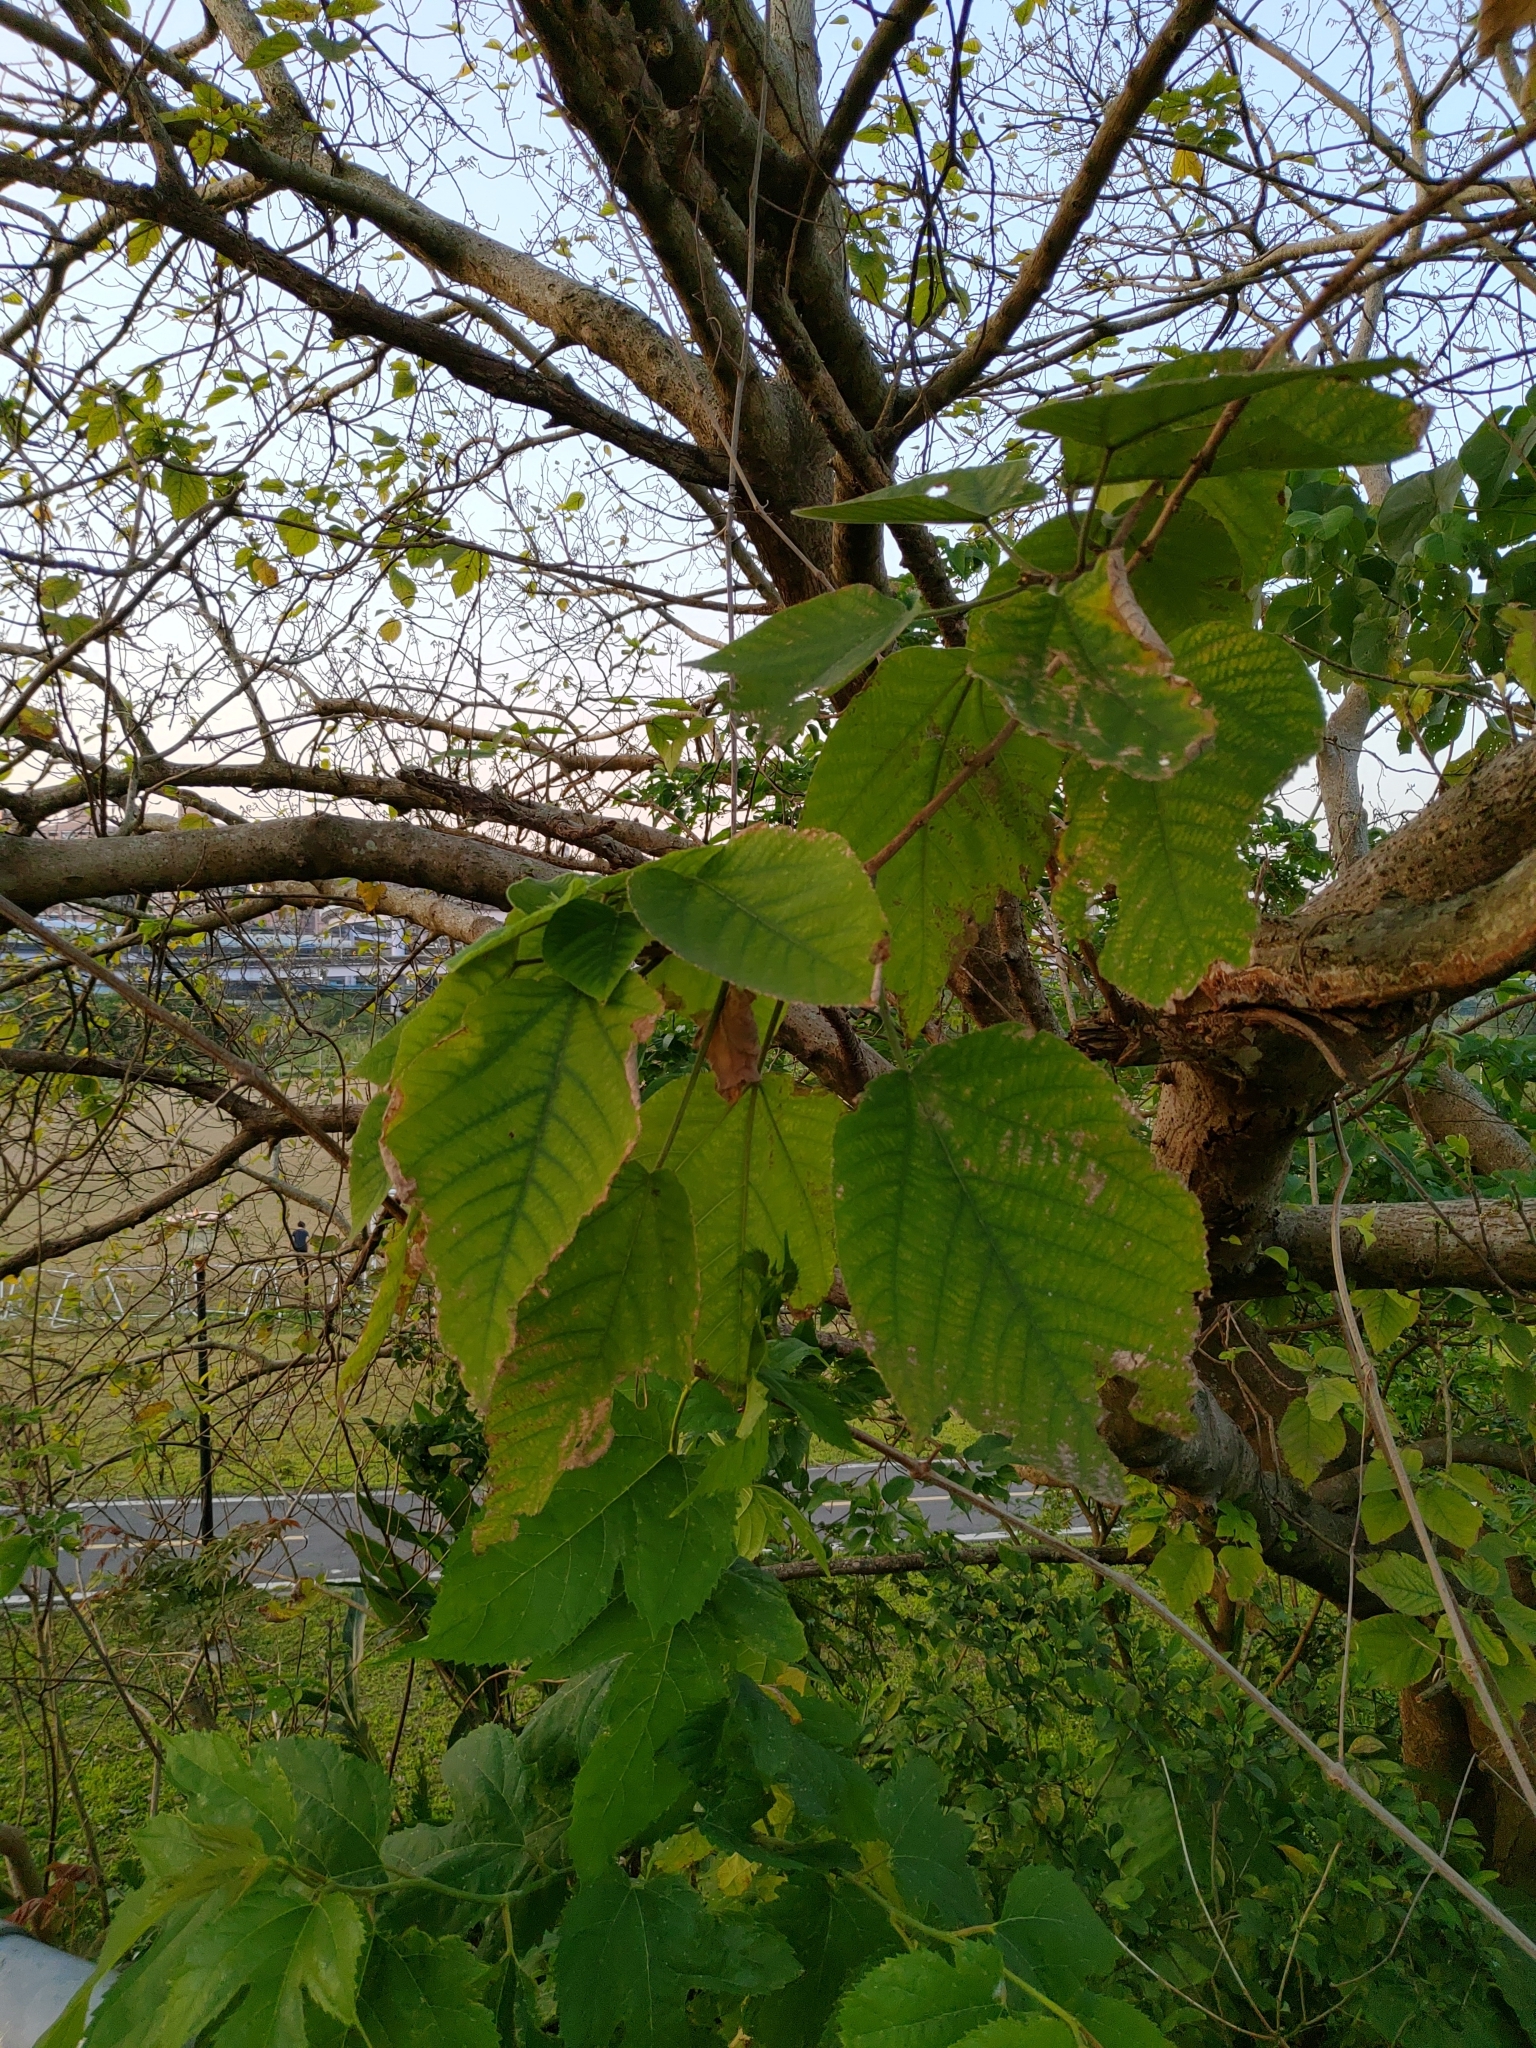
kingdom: Plantae
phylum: Tracheophyta
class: Magnoliopsida
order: Rosales
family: Moraceae
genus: Broussonetia
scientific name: Broussonetia papyrifera
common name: Paper mulberry
